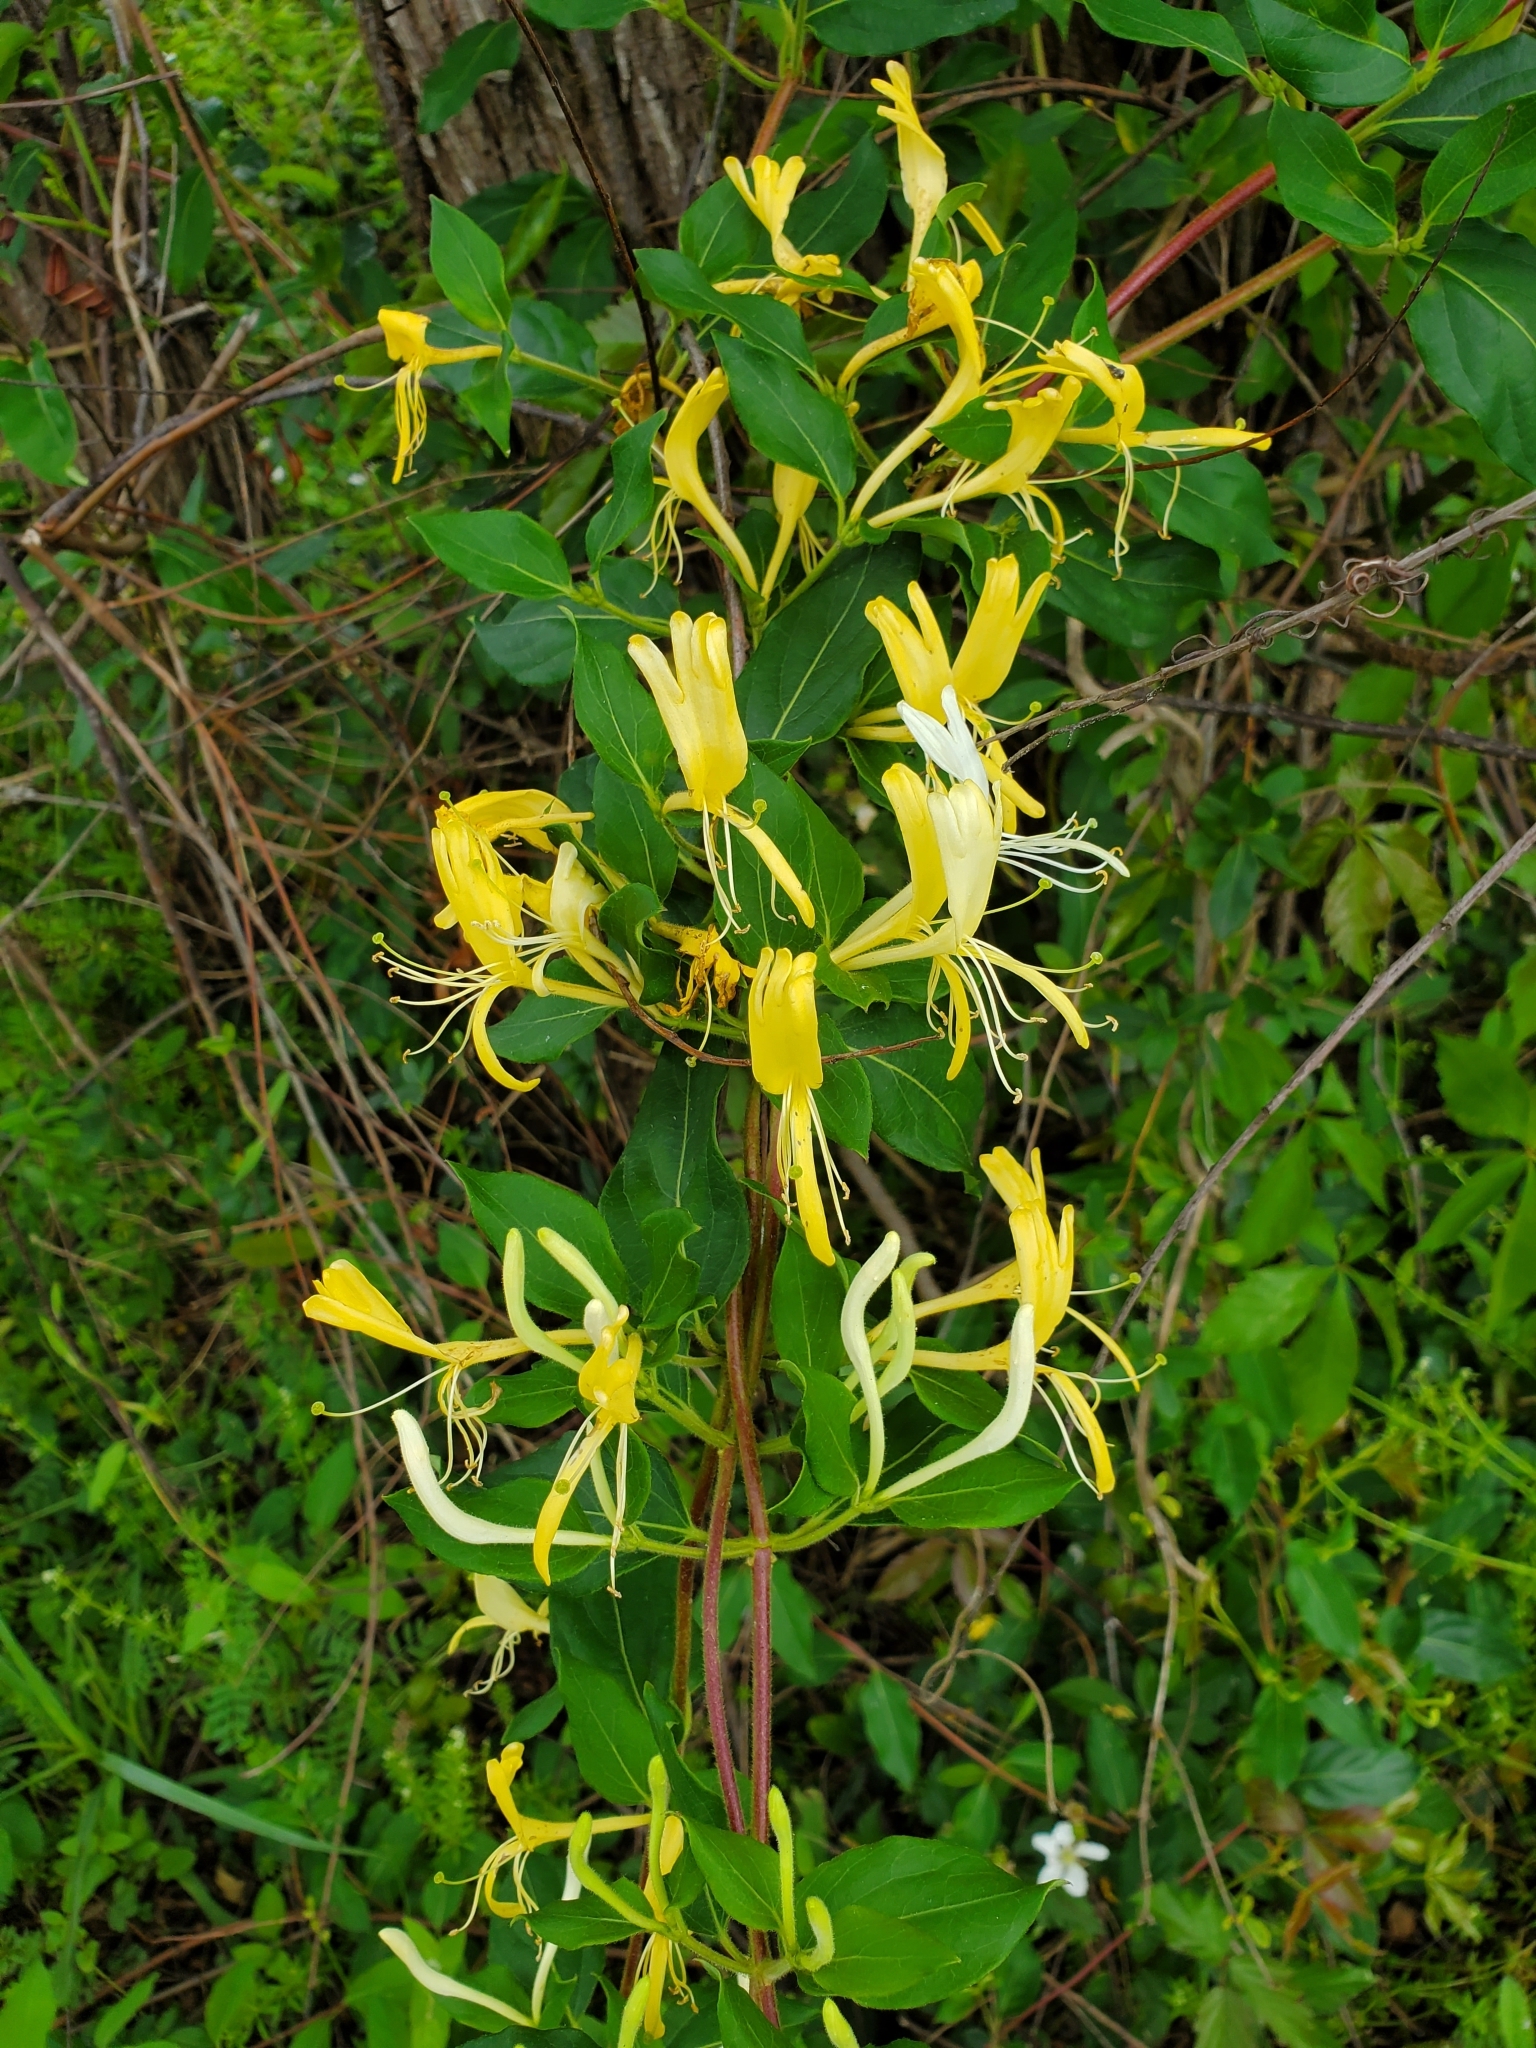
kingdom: Plantae
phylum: Tracheophyta
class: Magnoliopsida
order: Dipsacales
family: Caprifoliaceae
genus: Lonicera
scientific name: Lonicera japonica
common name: Japanese honeysuckle
